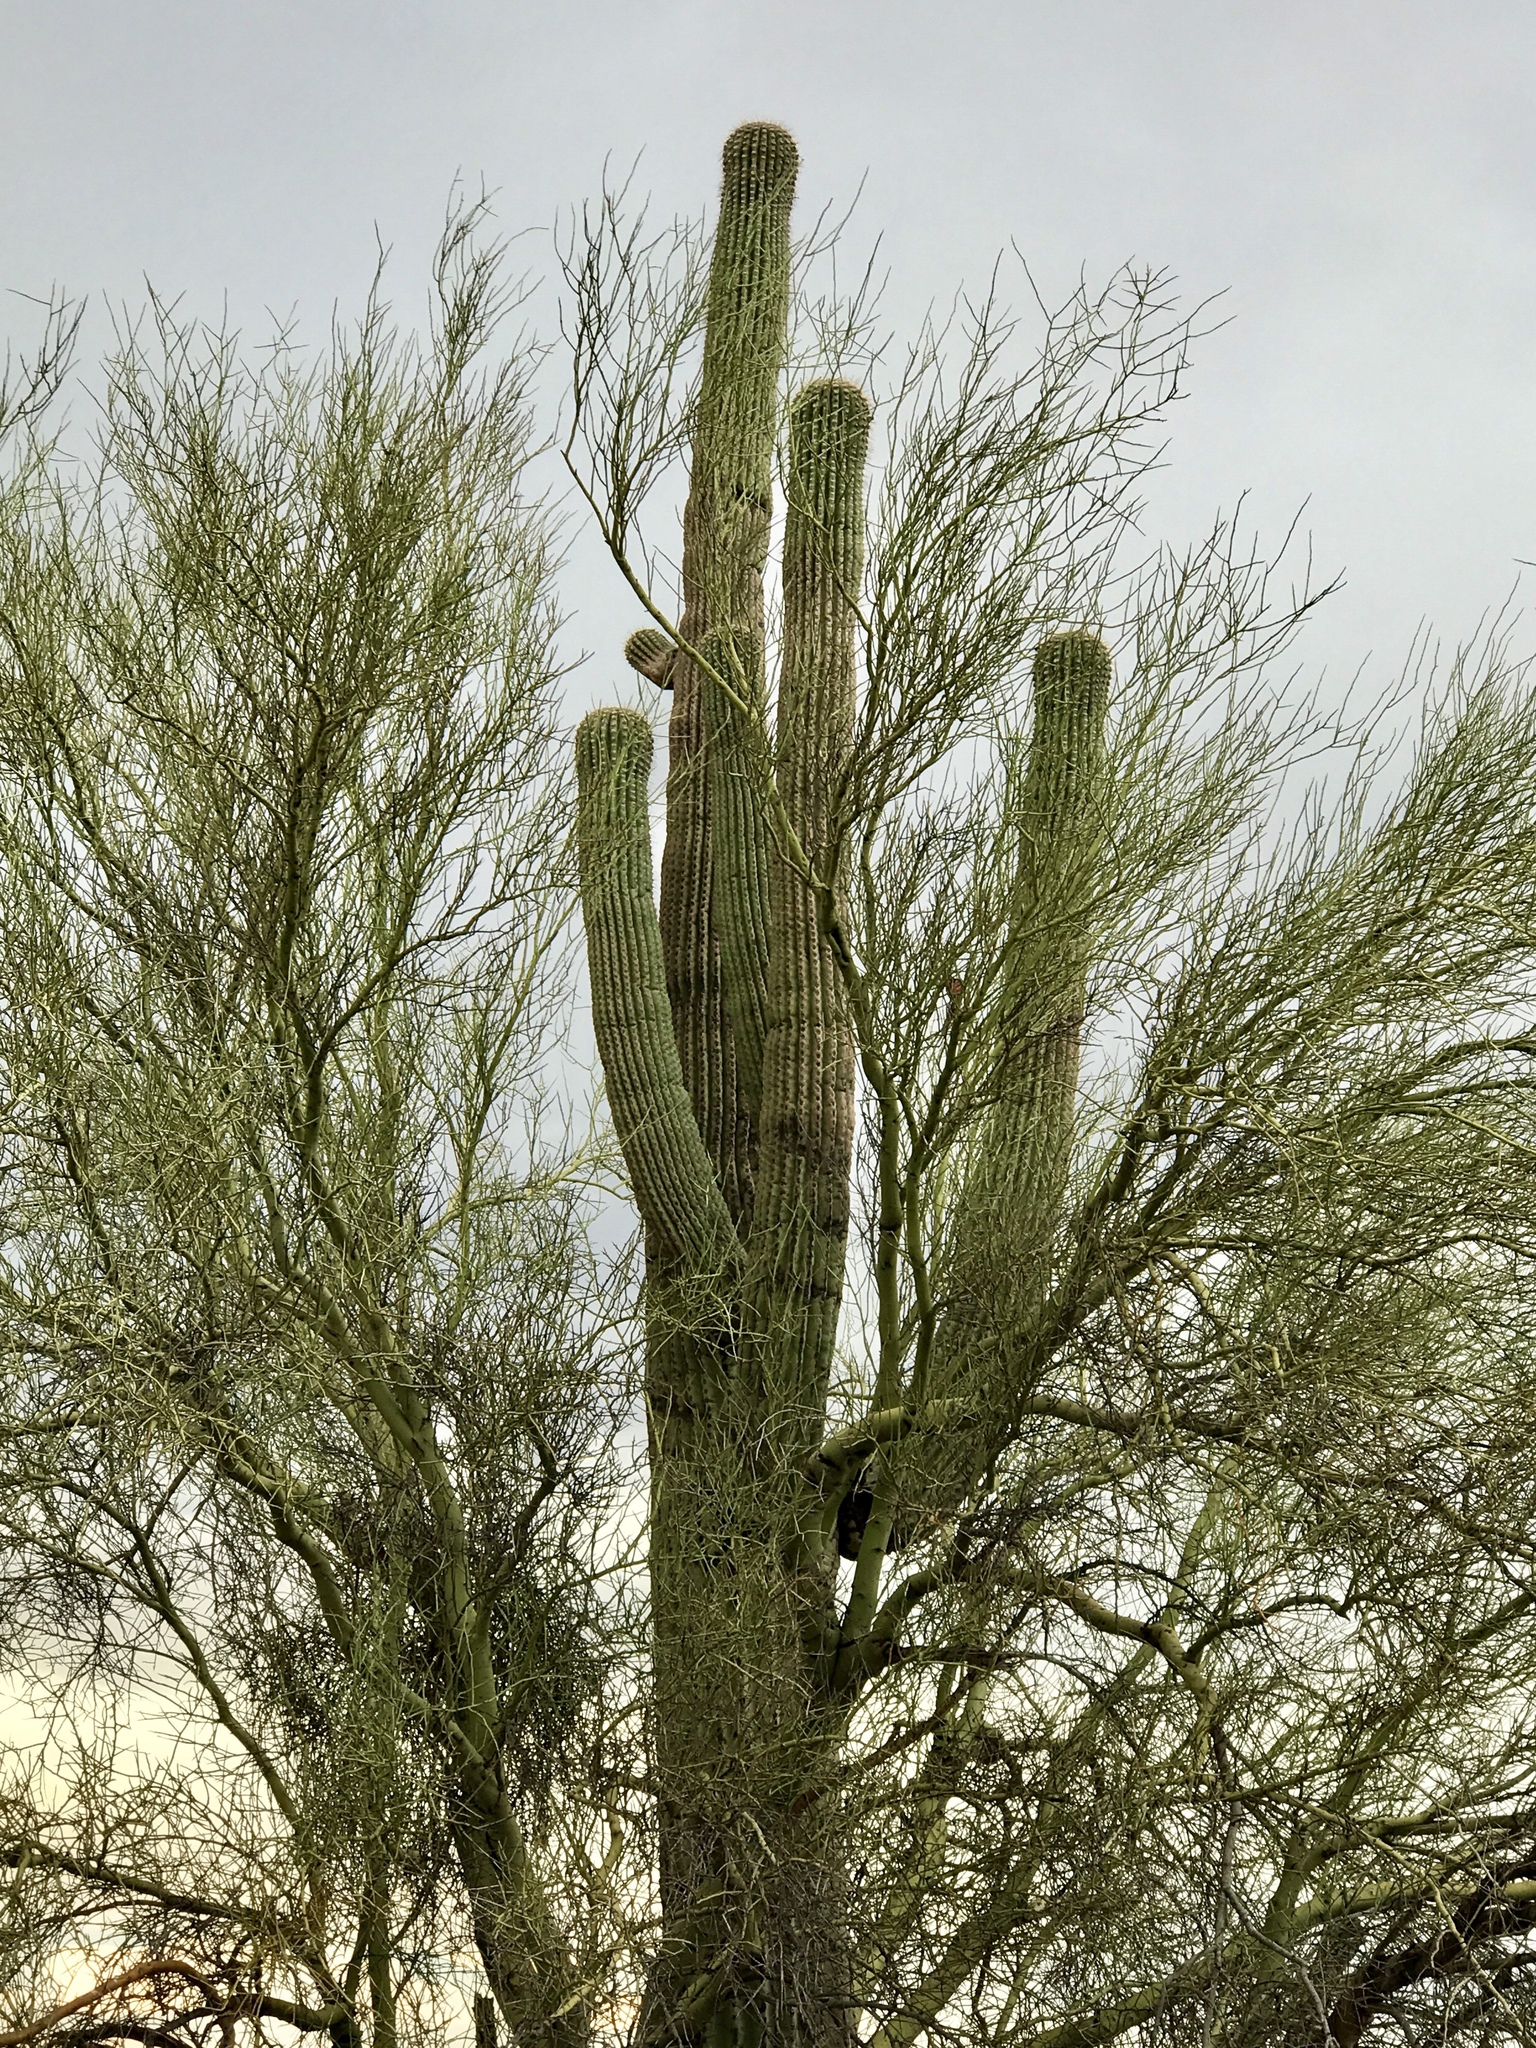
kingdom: Plantae
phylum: Tracheophyta
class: Magnoliopsida
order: Caryophyllales
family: Cactaceae
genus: Carnegiea
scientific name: Carnegiea gigantea
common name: Saguaro
